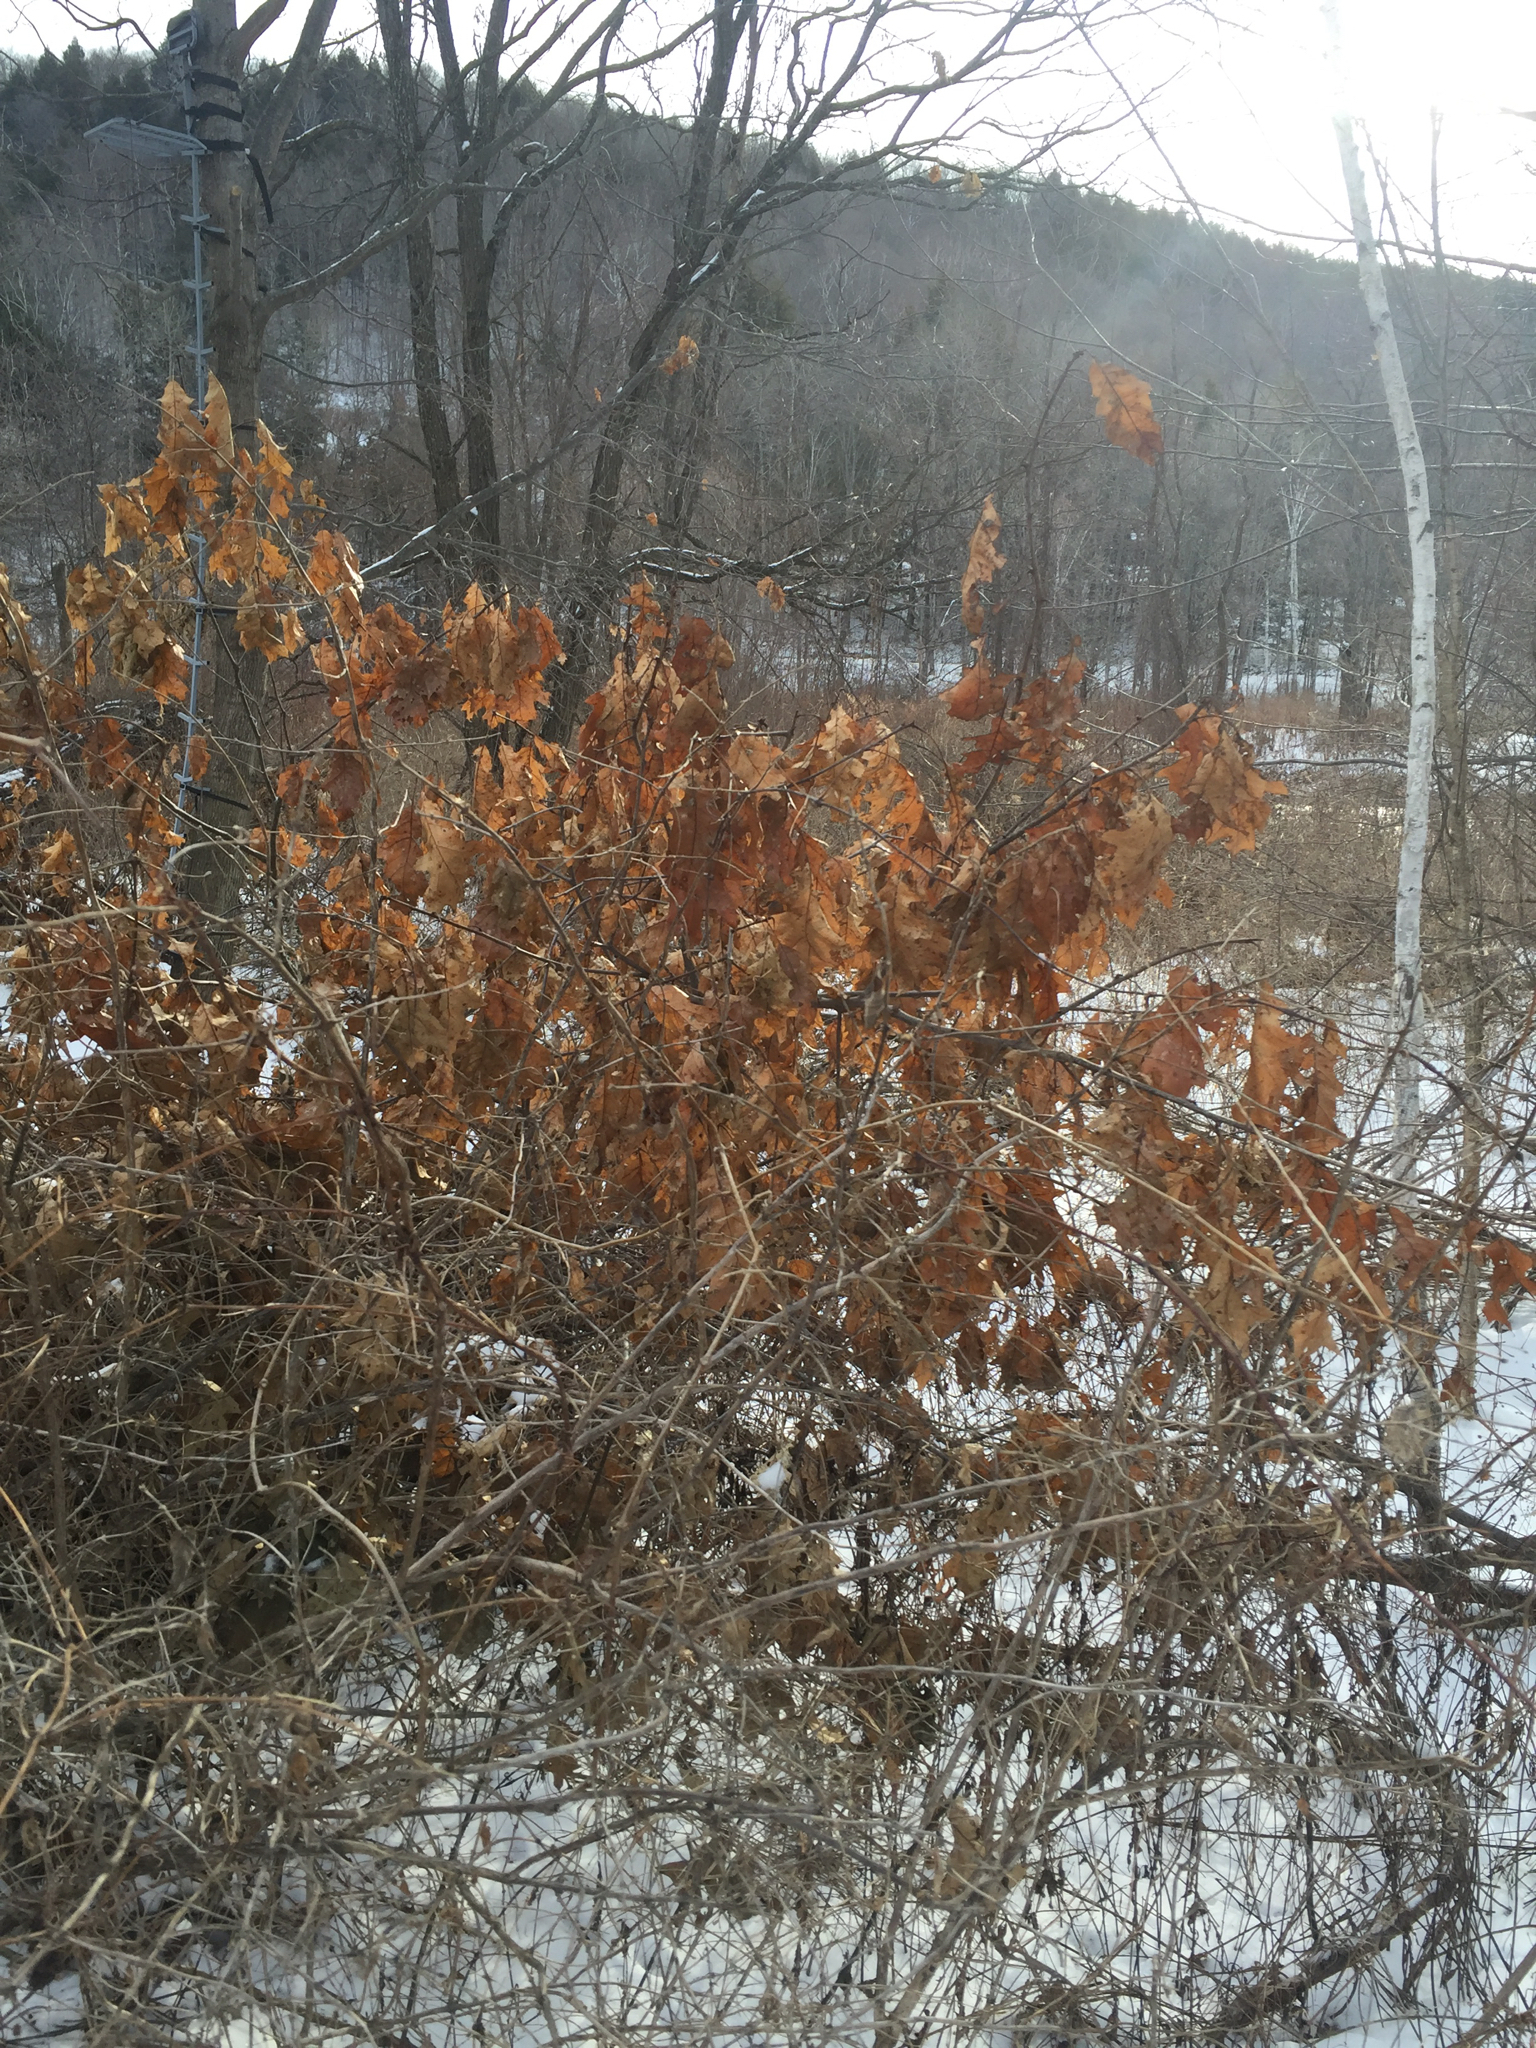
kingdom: Plantae
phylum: Tracheophyta
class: Magnoliopsida
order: Fagales
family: Fagaceae
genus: Quercus
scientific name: Quercus rubra
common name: Red oak
